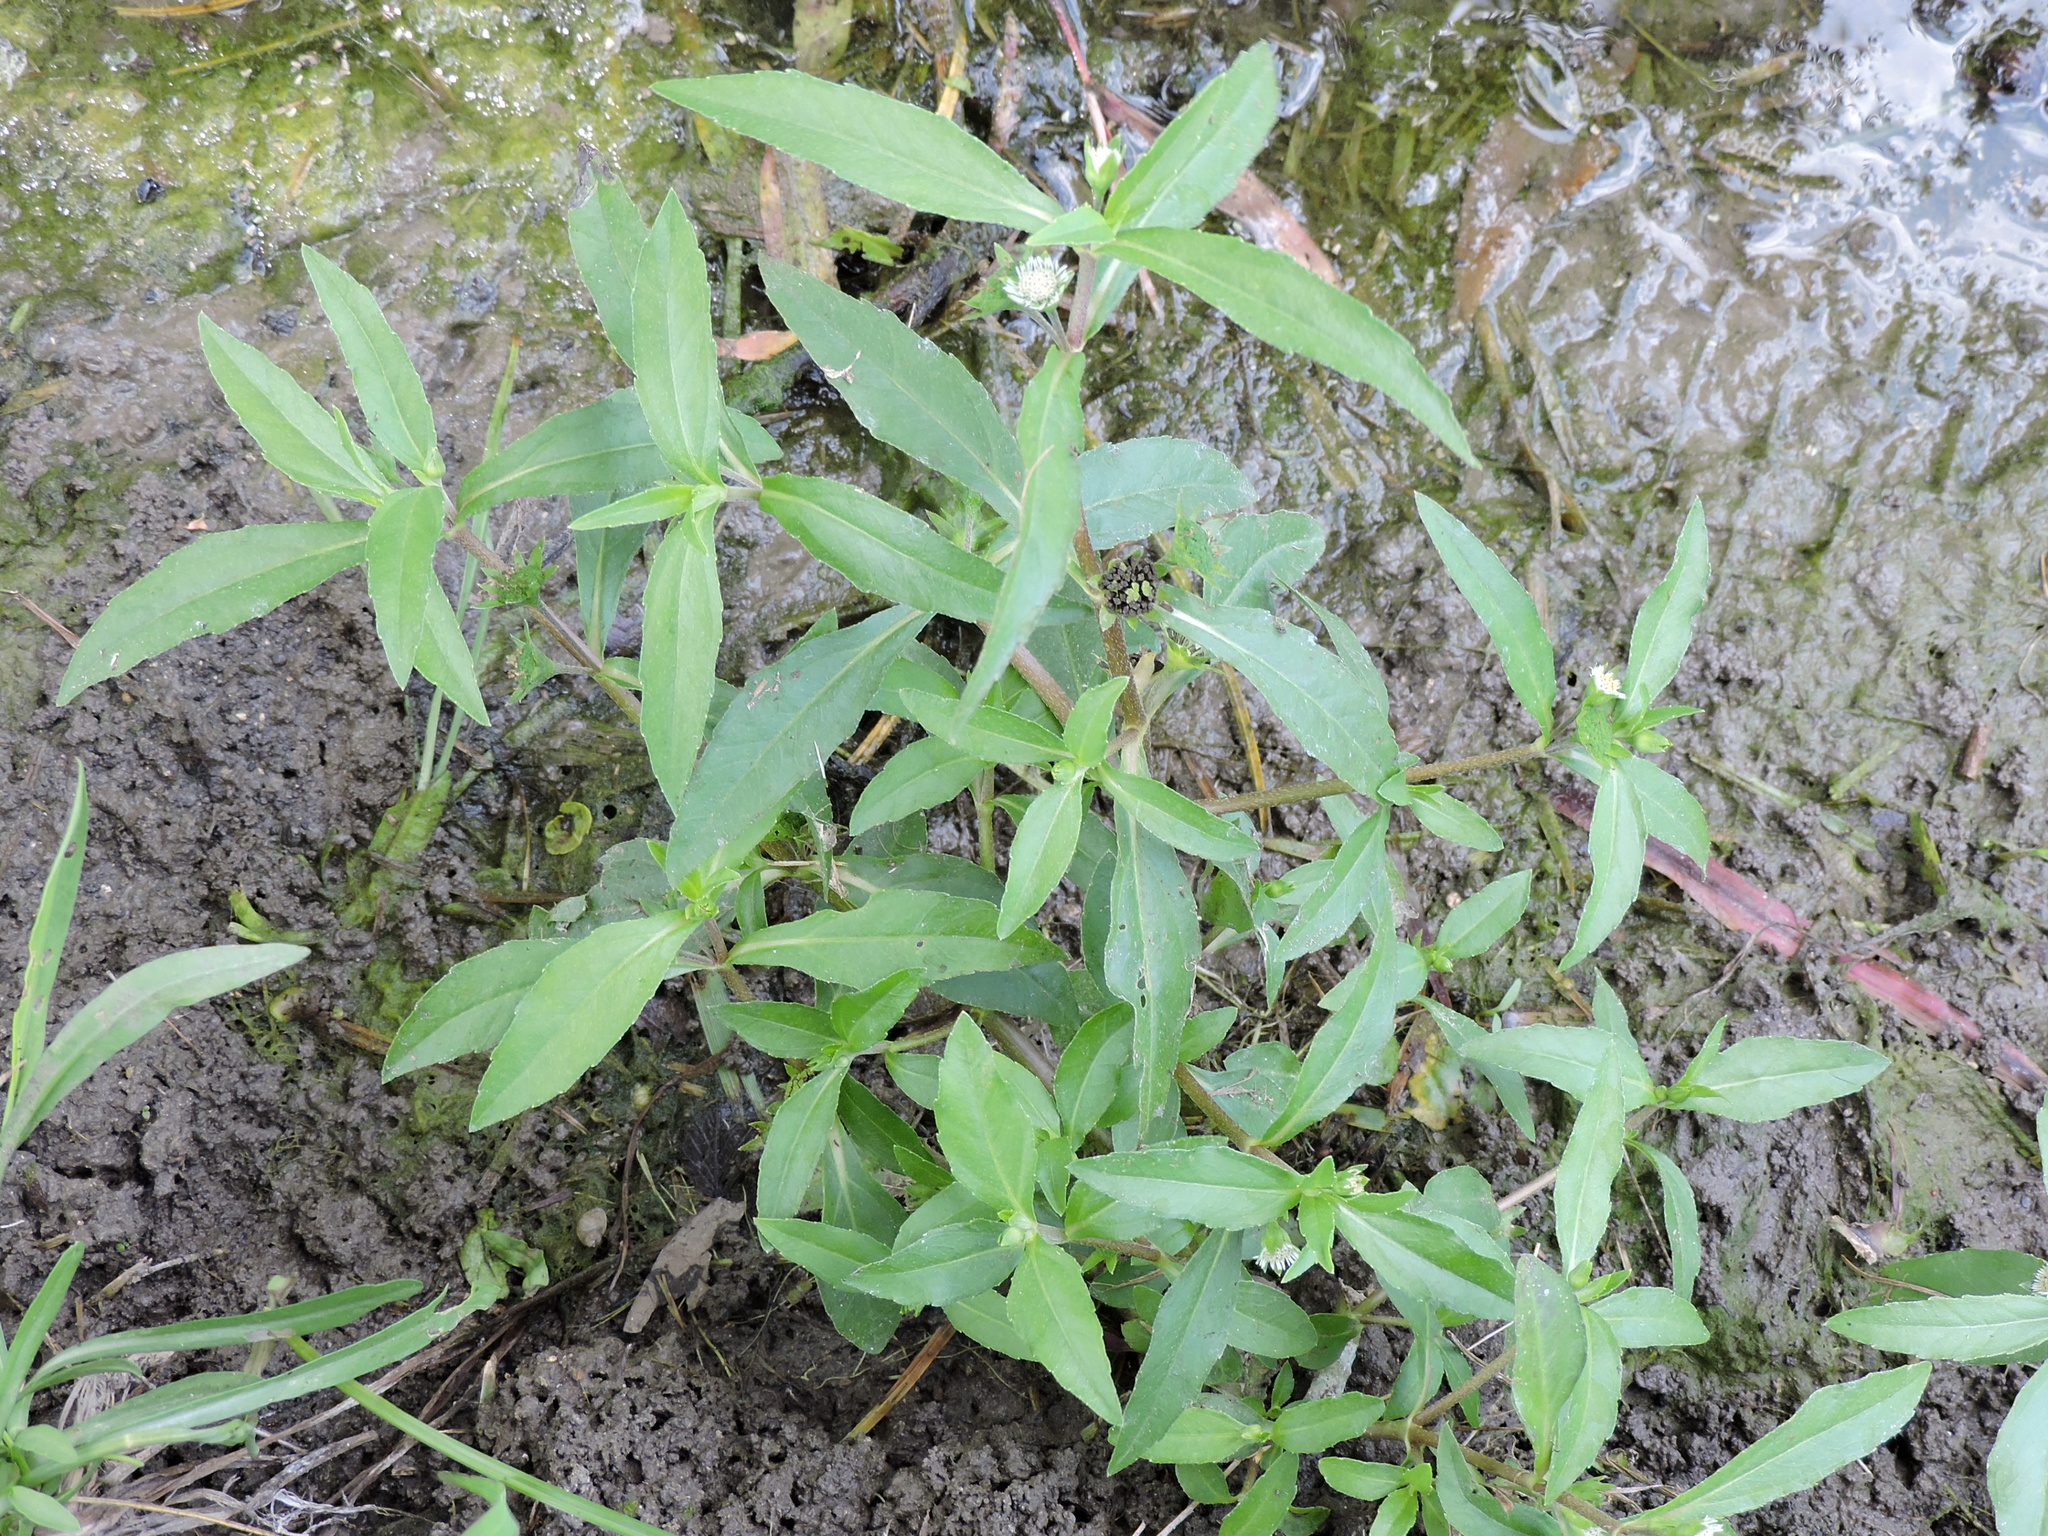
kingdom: Plantae
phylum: Tracheophyta
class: Magnoliopsida
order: Asterales
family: Asteraceae
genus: Eclipta
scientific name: Eclipta prostrata
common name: False daisy
